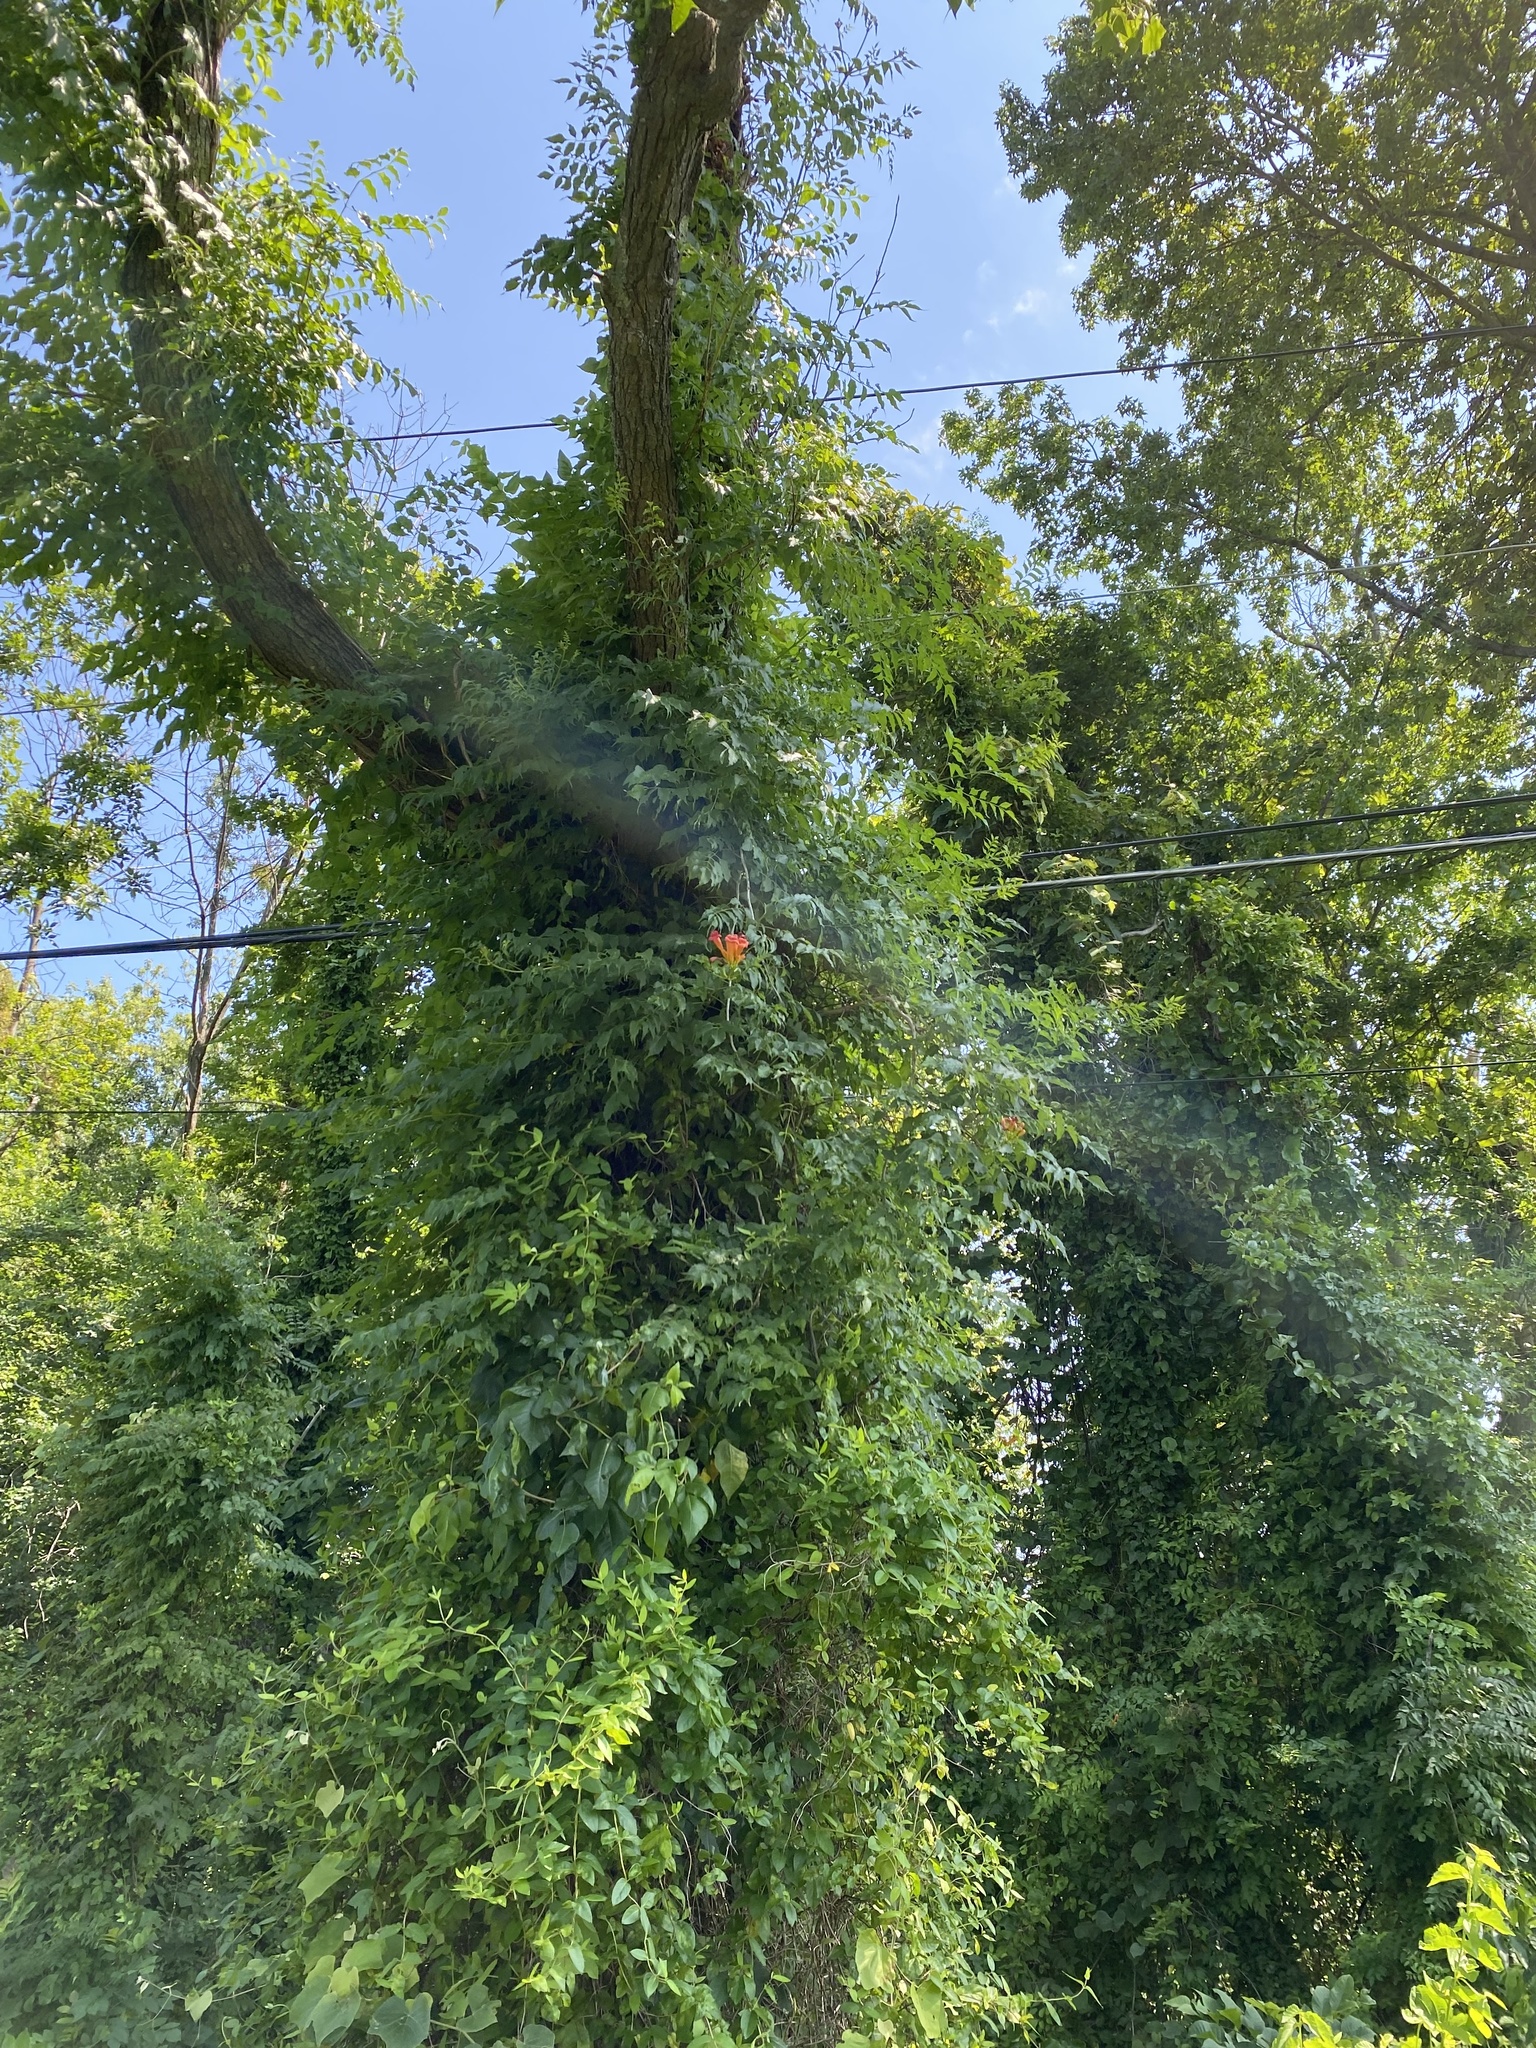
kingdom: Plantae
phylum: Tracheophyta
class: Magnoliopsida
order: Lamiales
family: Bignoniaceae
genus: Campsis
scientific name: Campsis radicans
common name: Trumpet-creeper
